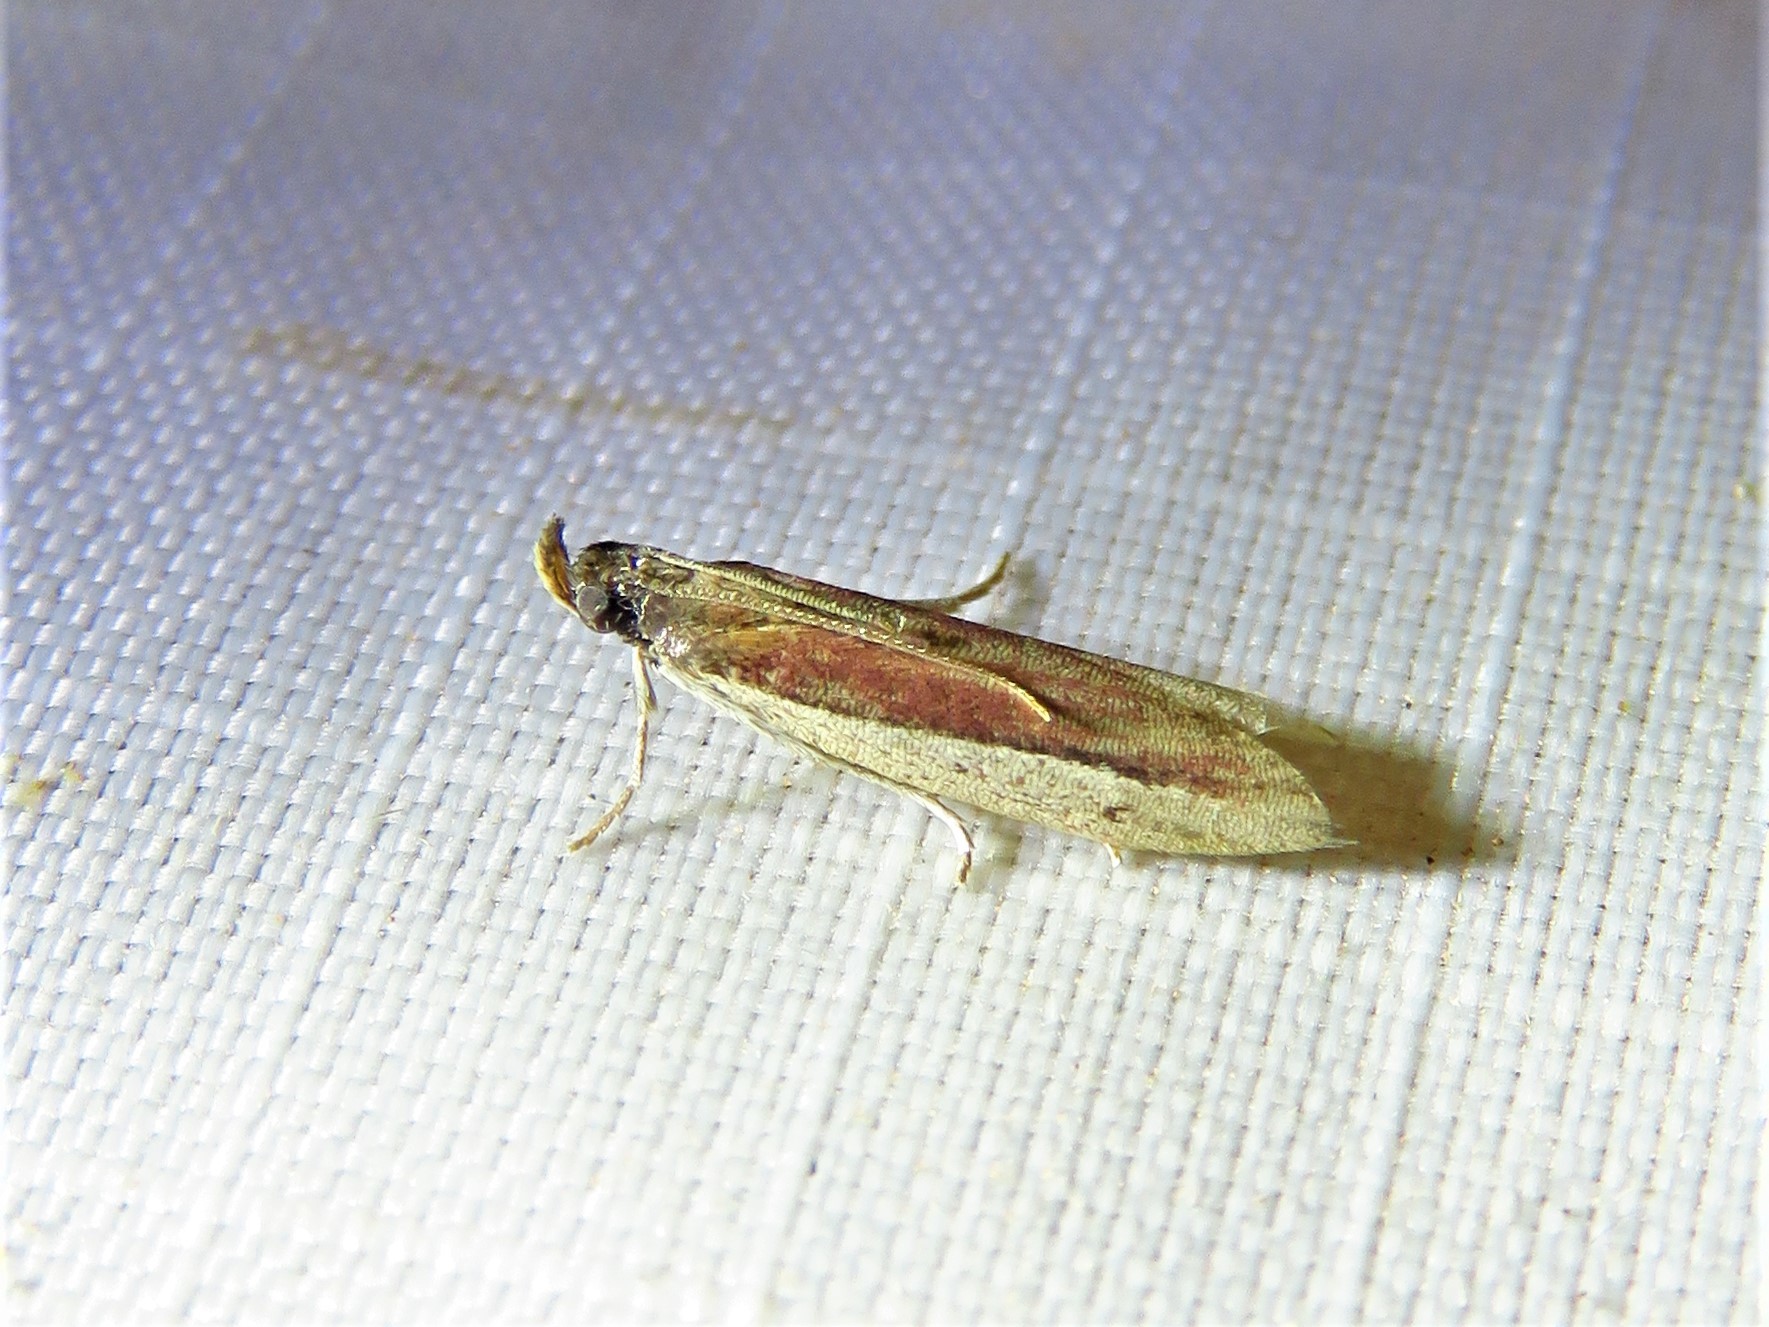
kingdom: Animalia
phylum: Arthropoda
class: Insecta
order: Lepidoptera
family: Pyralidae
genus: Tampa
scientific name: Tampa dimediatella
